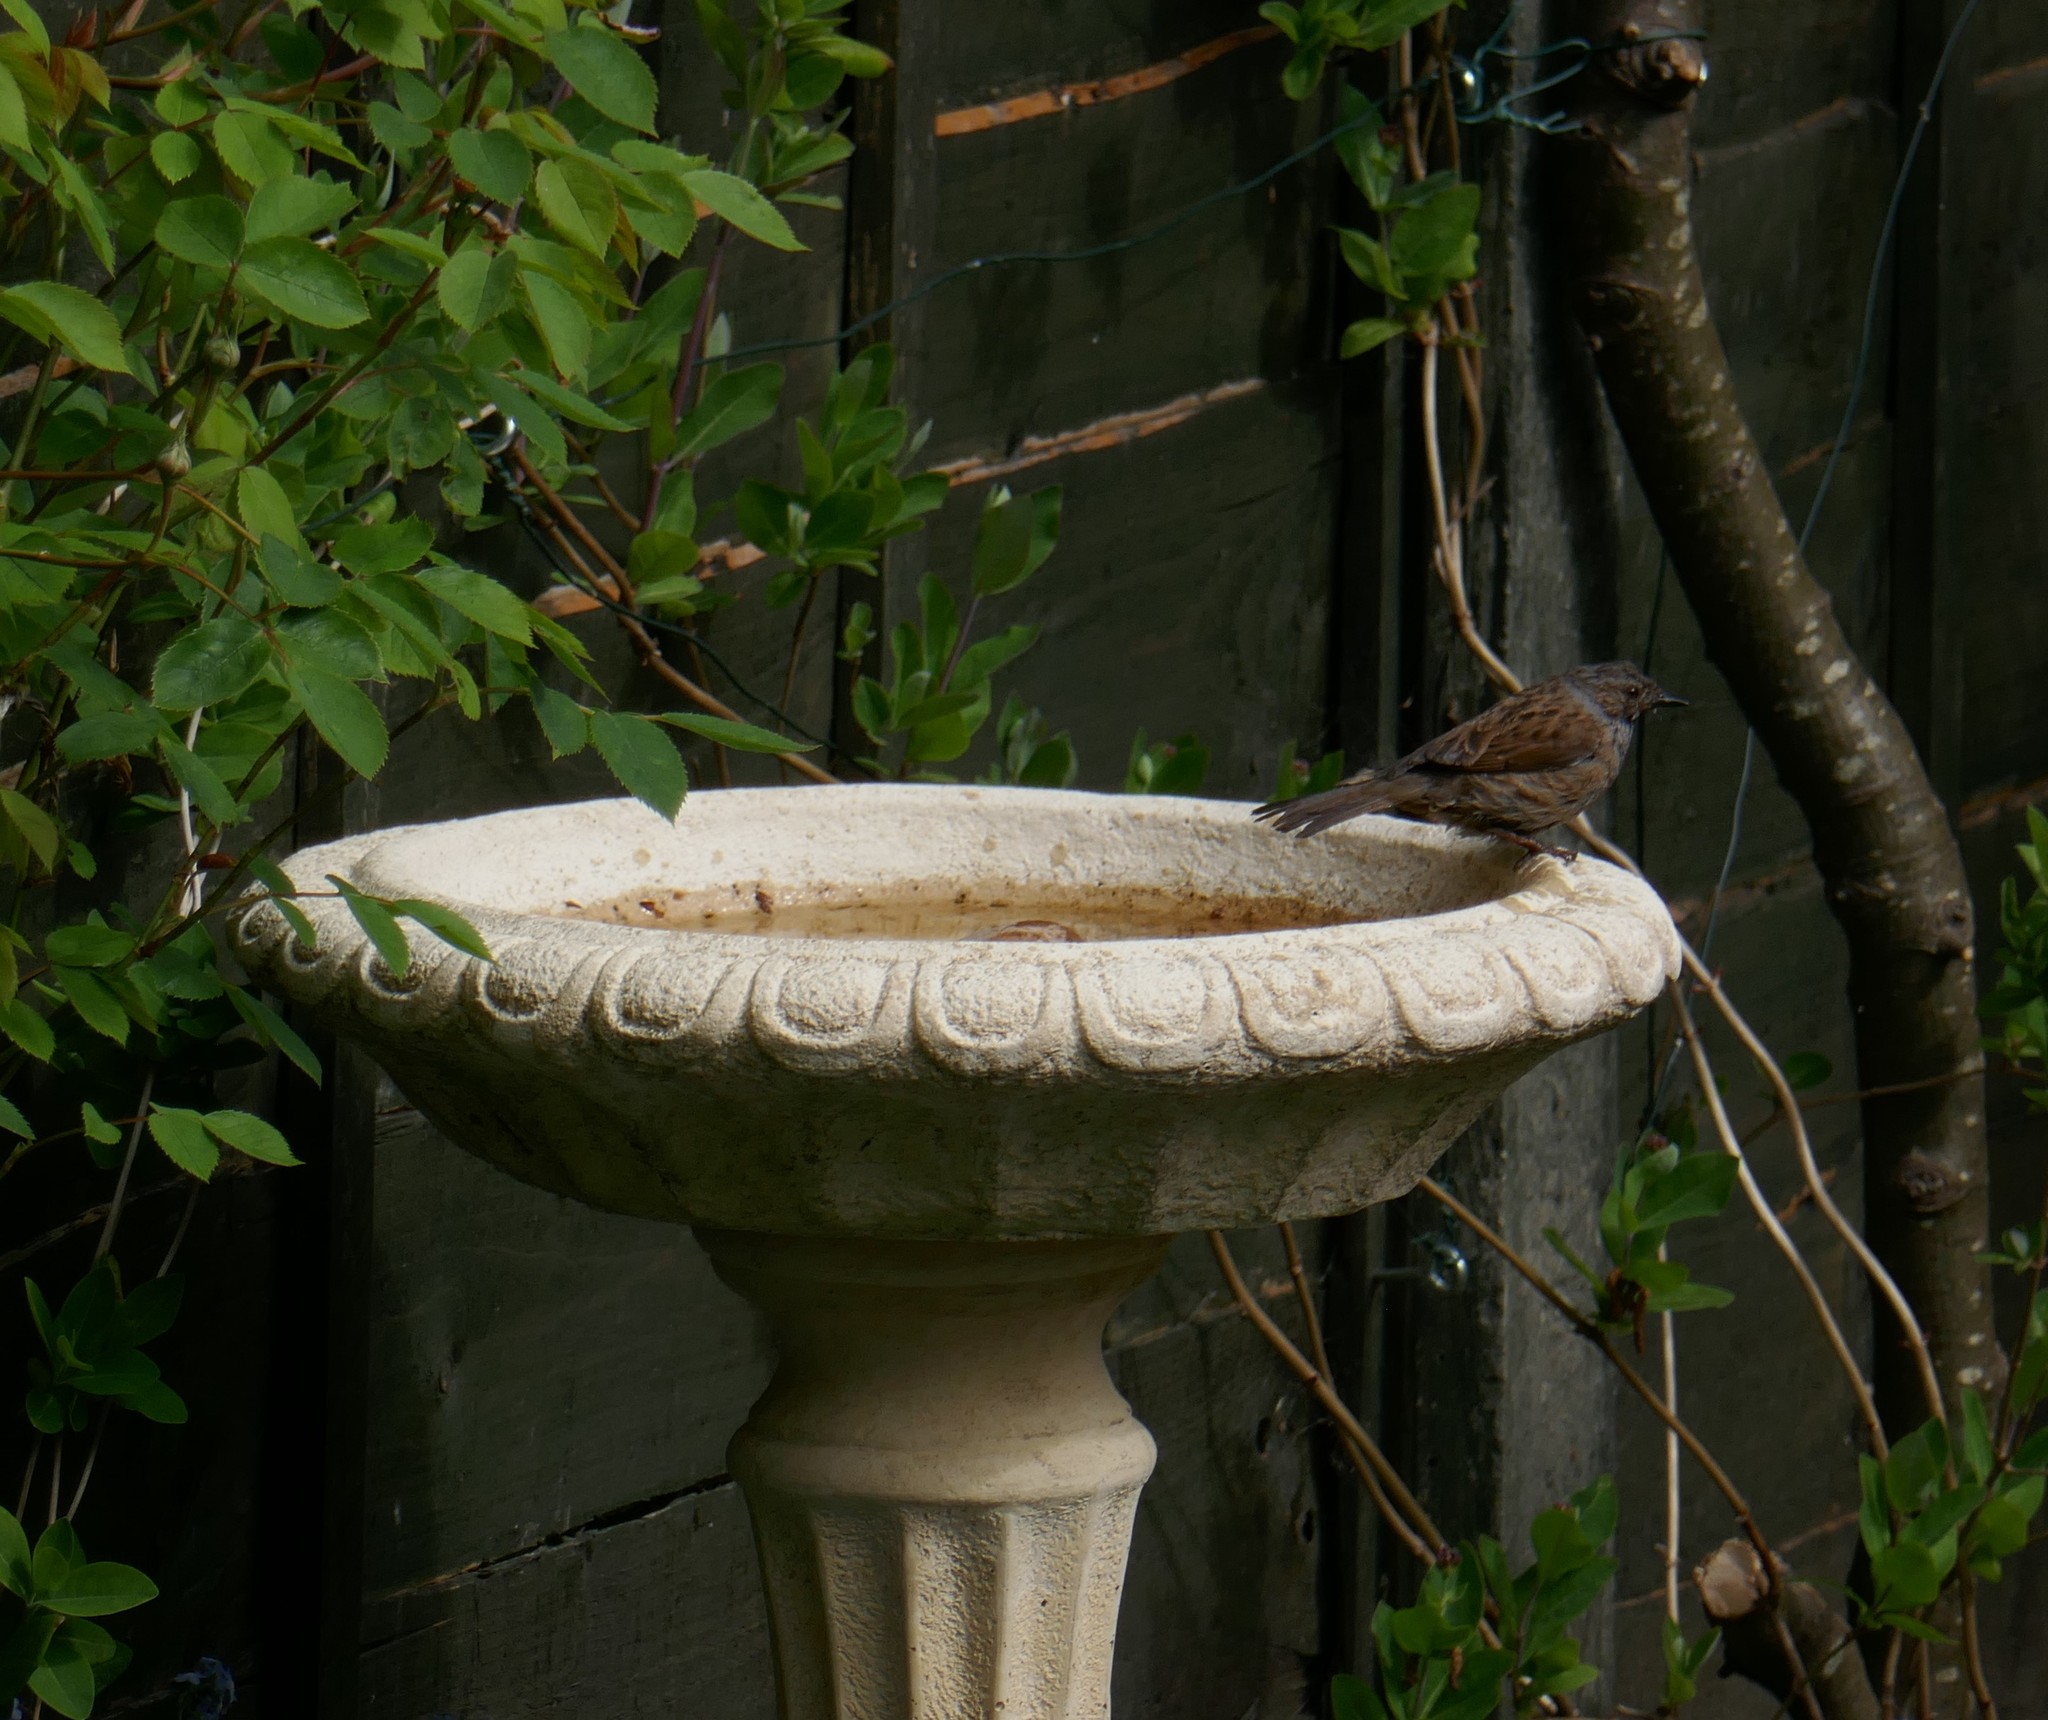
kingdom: Animalia
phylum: Chordata
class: Aves
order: Passeriformes
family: Prunellidae
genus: Prunella
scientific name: Prunella modularis
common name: Dunnock
